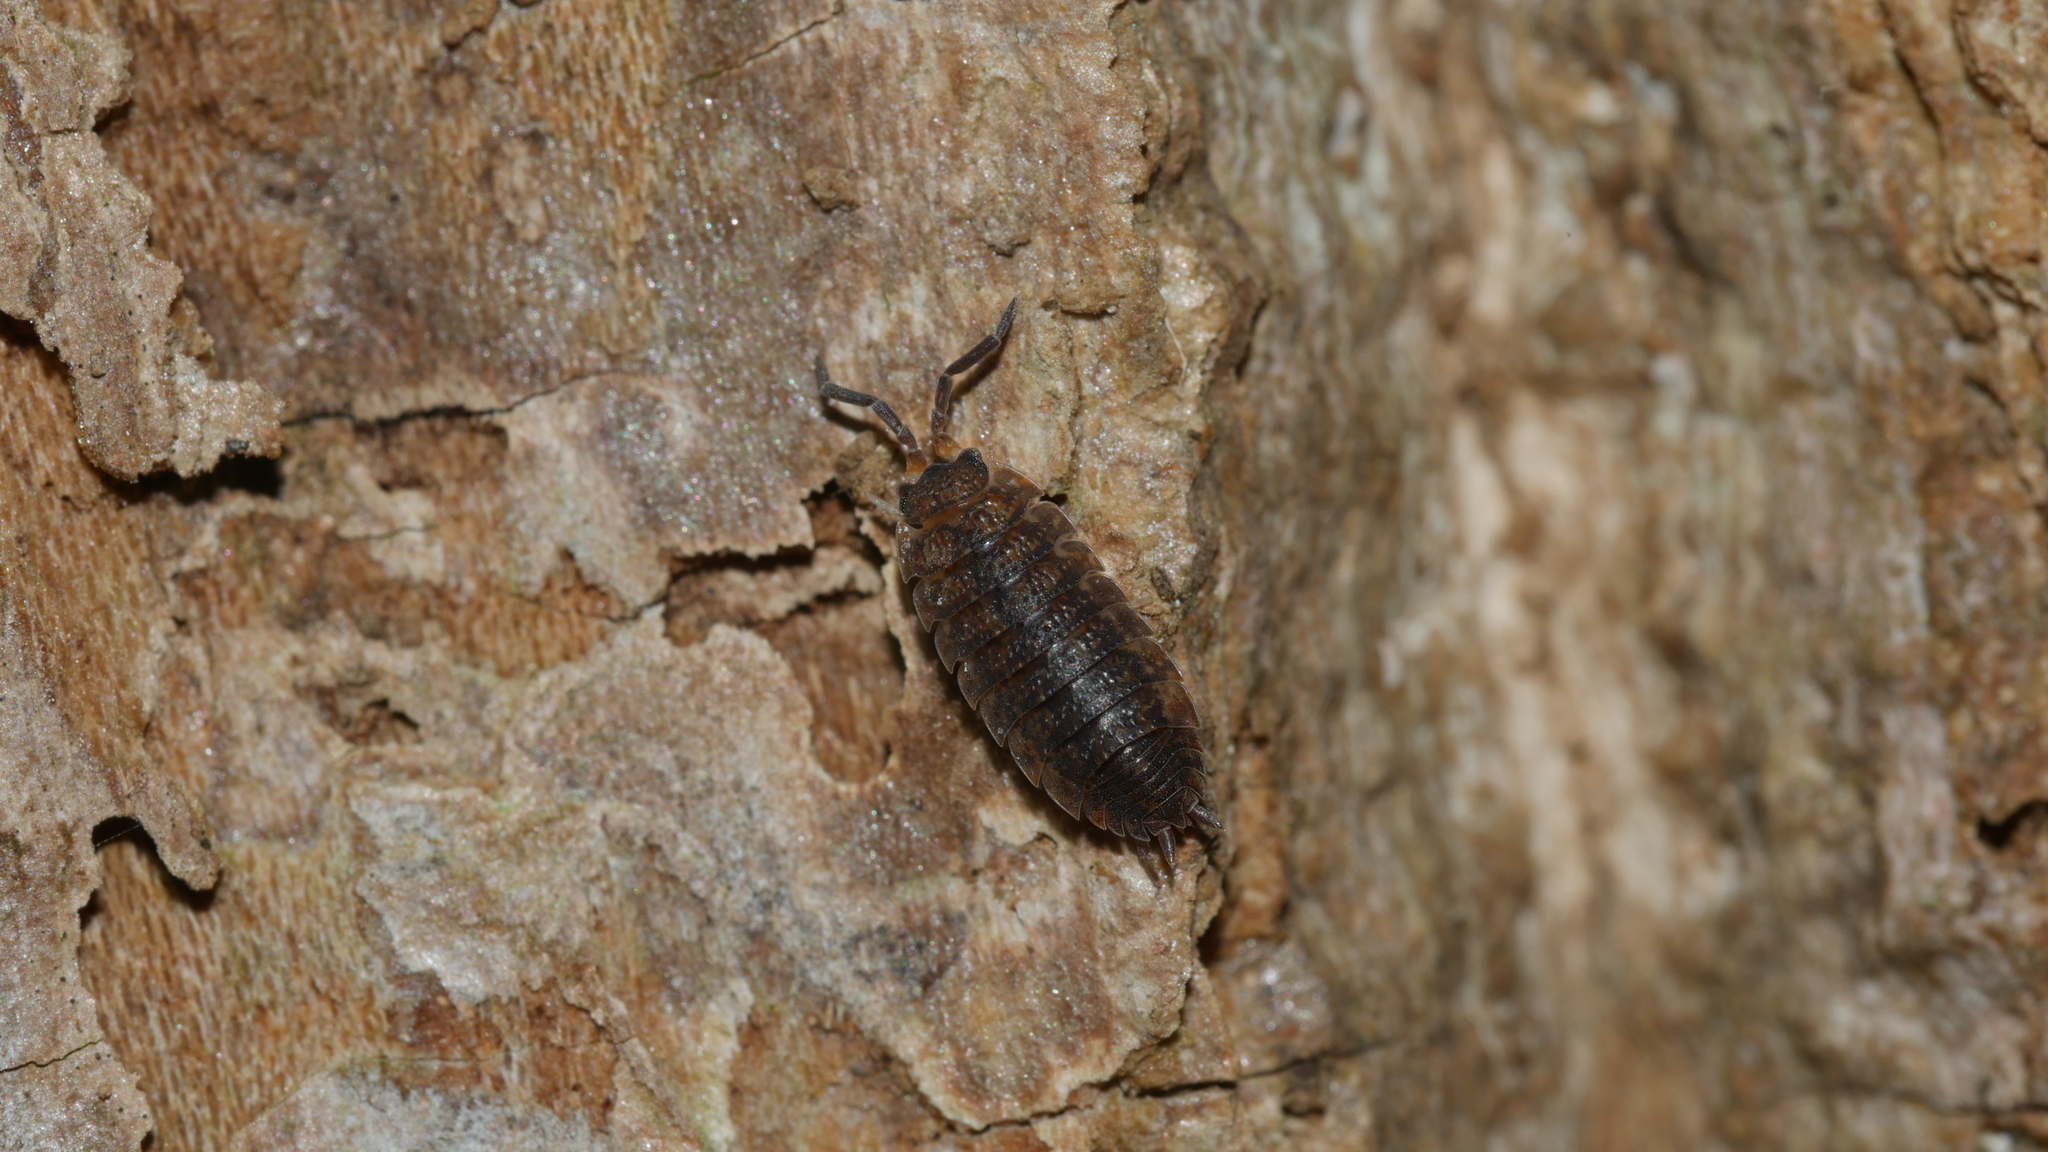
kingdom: Animalia
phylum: Arthropoda
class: Malacostraca
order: Isopoda
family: Porcellionidae
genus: Porcellio
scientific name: Porcellio scaber
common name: Common rough woodlouse
